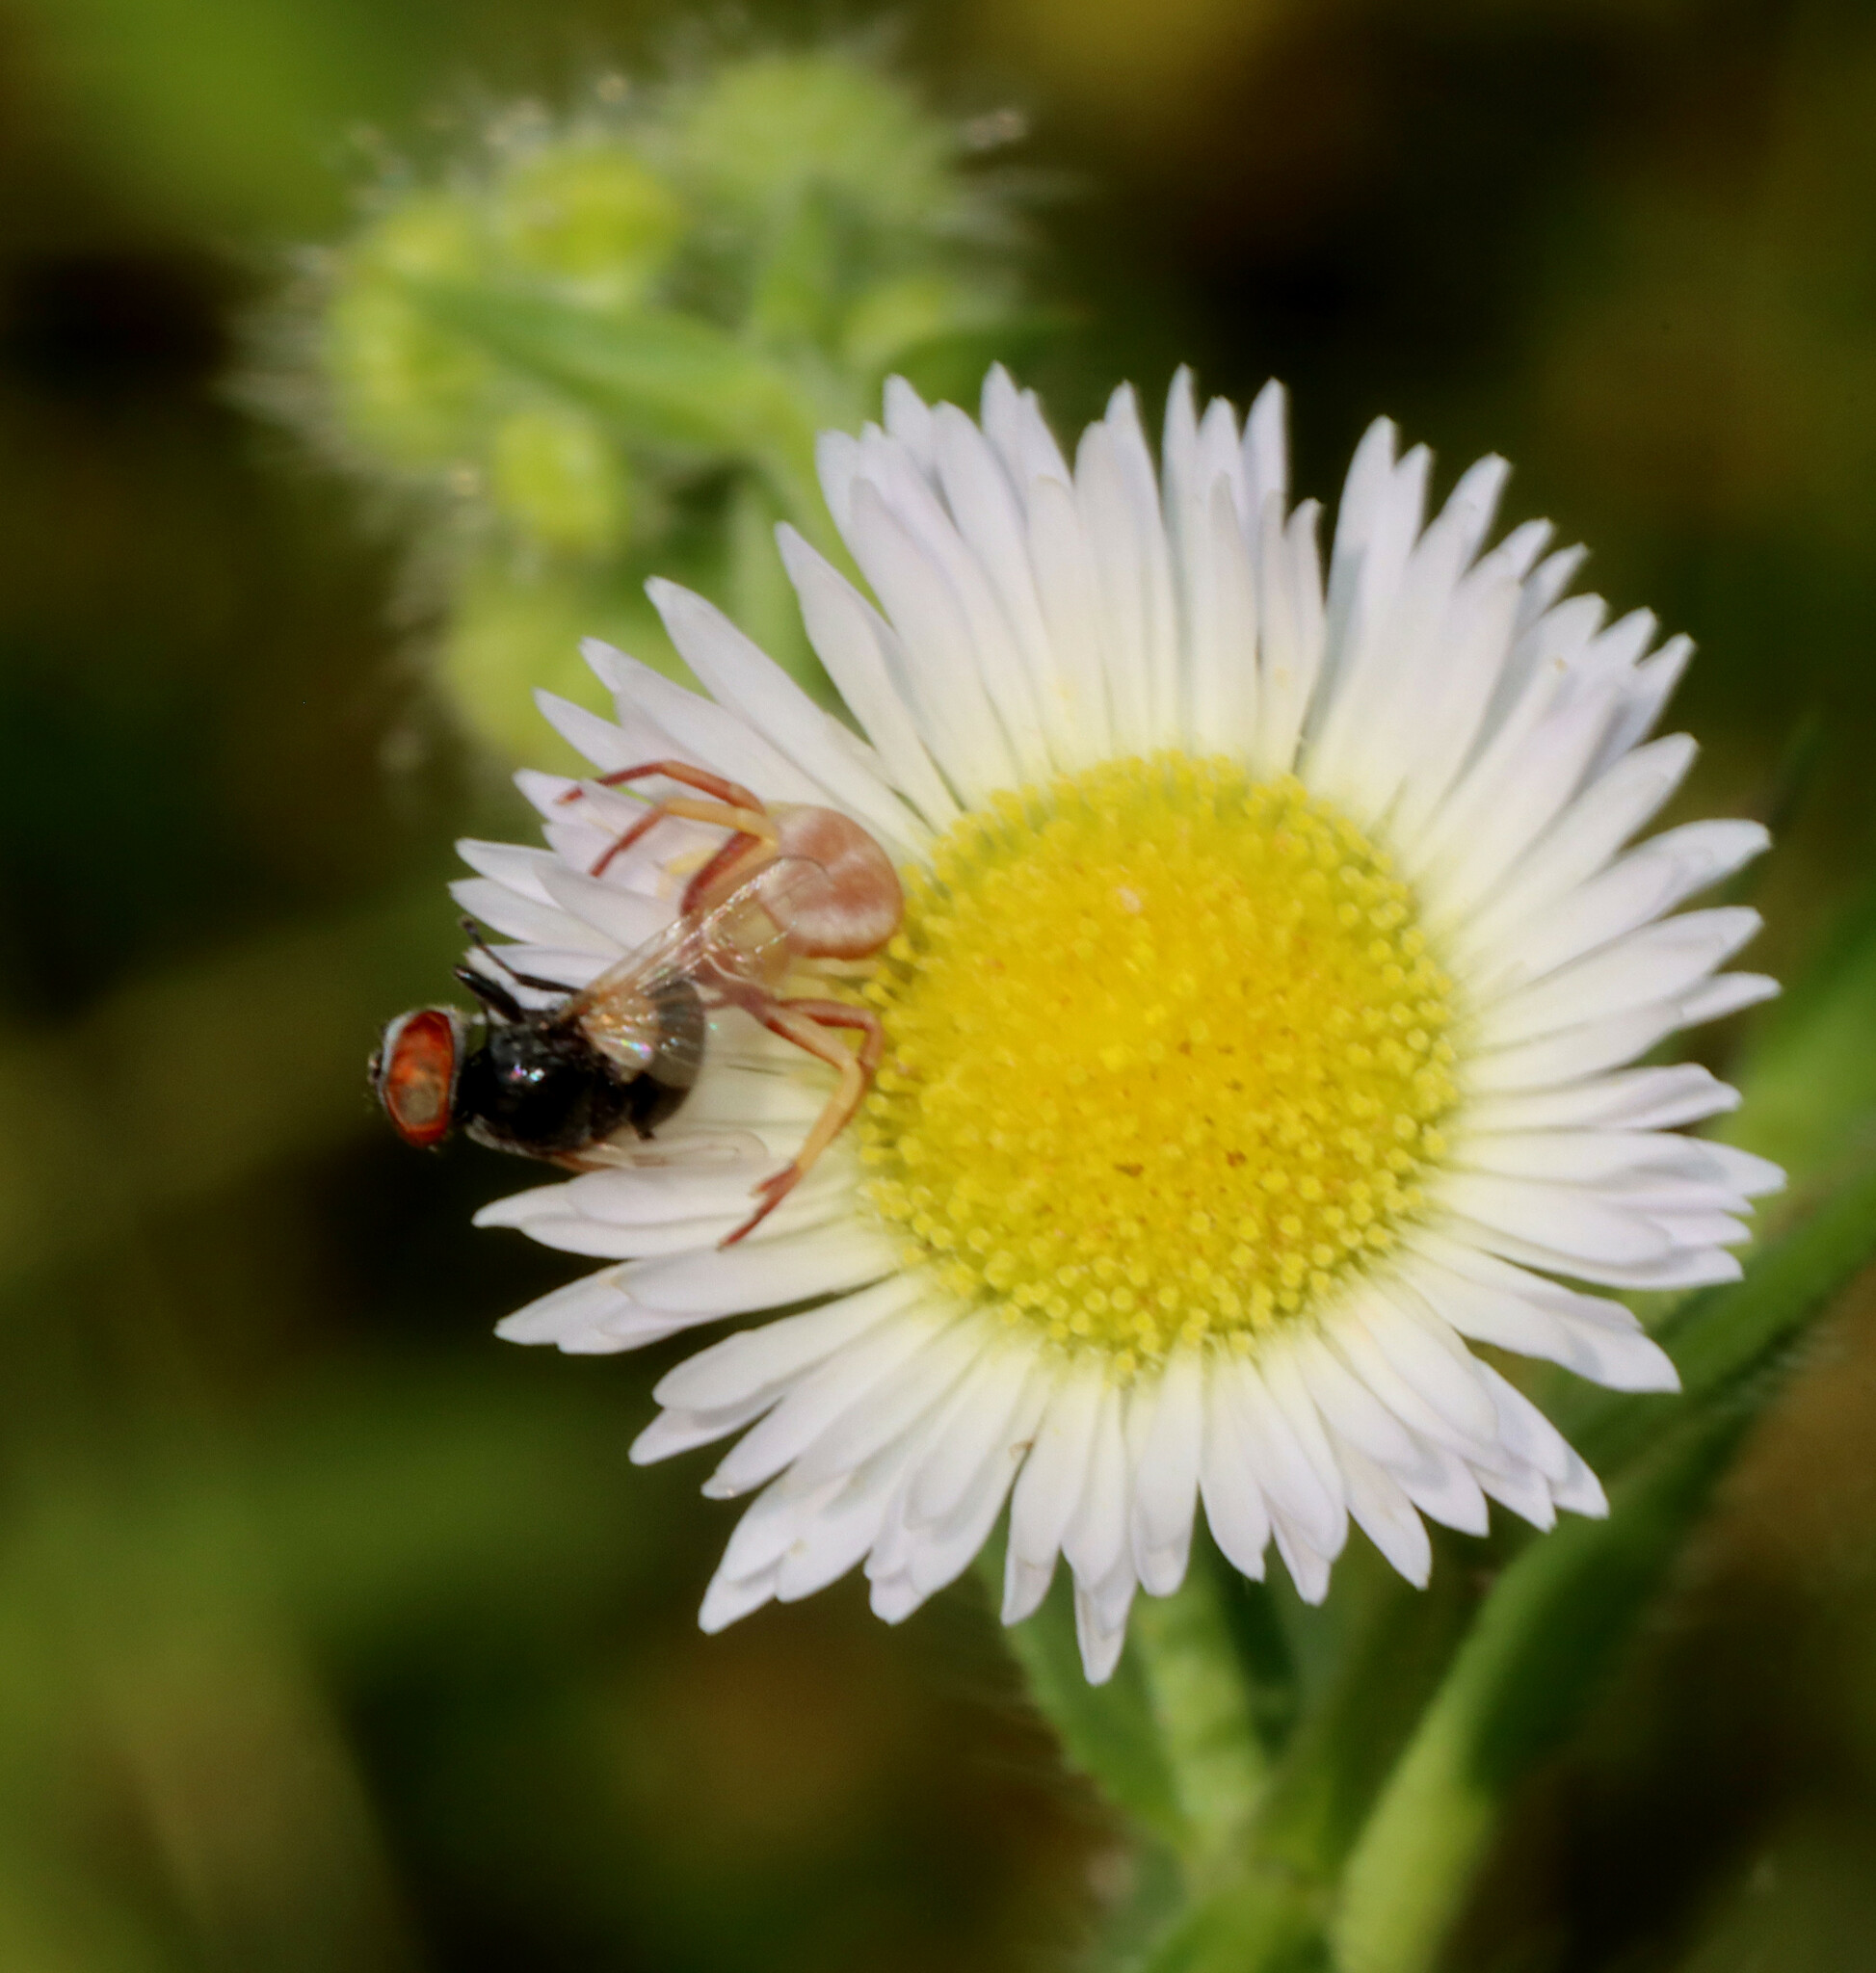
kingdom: Animalia
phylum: Arthropoda
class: Arachnida
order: Araneae
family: Thomisidae
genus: Misumenoides
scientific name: Misumenoides formosipes
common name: White-banded crab spider
